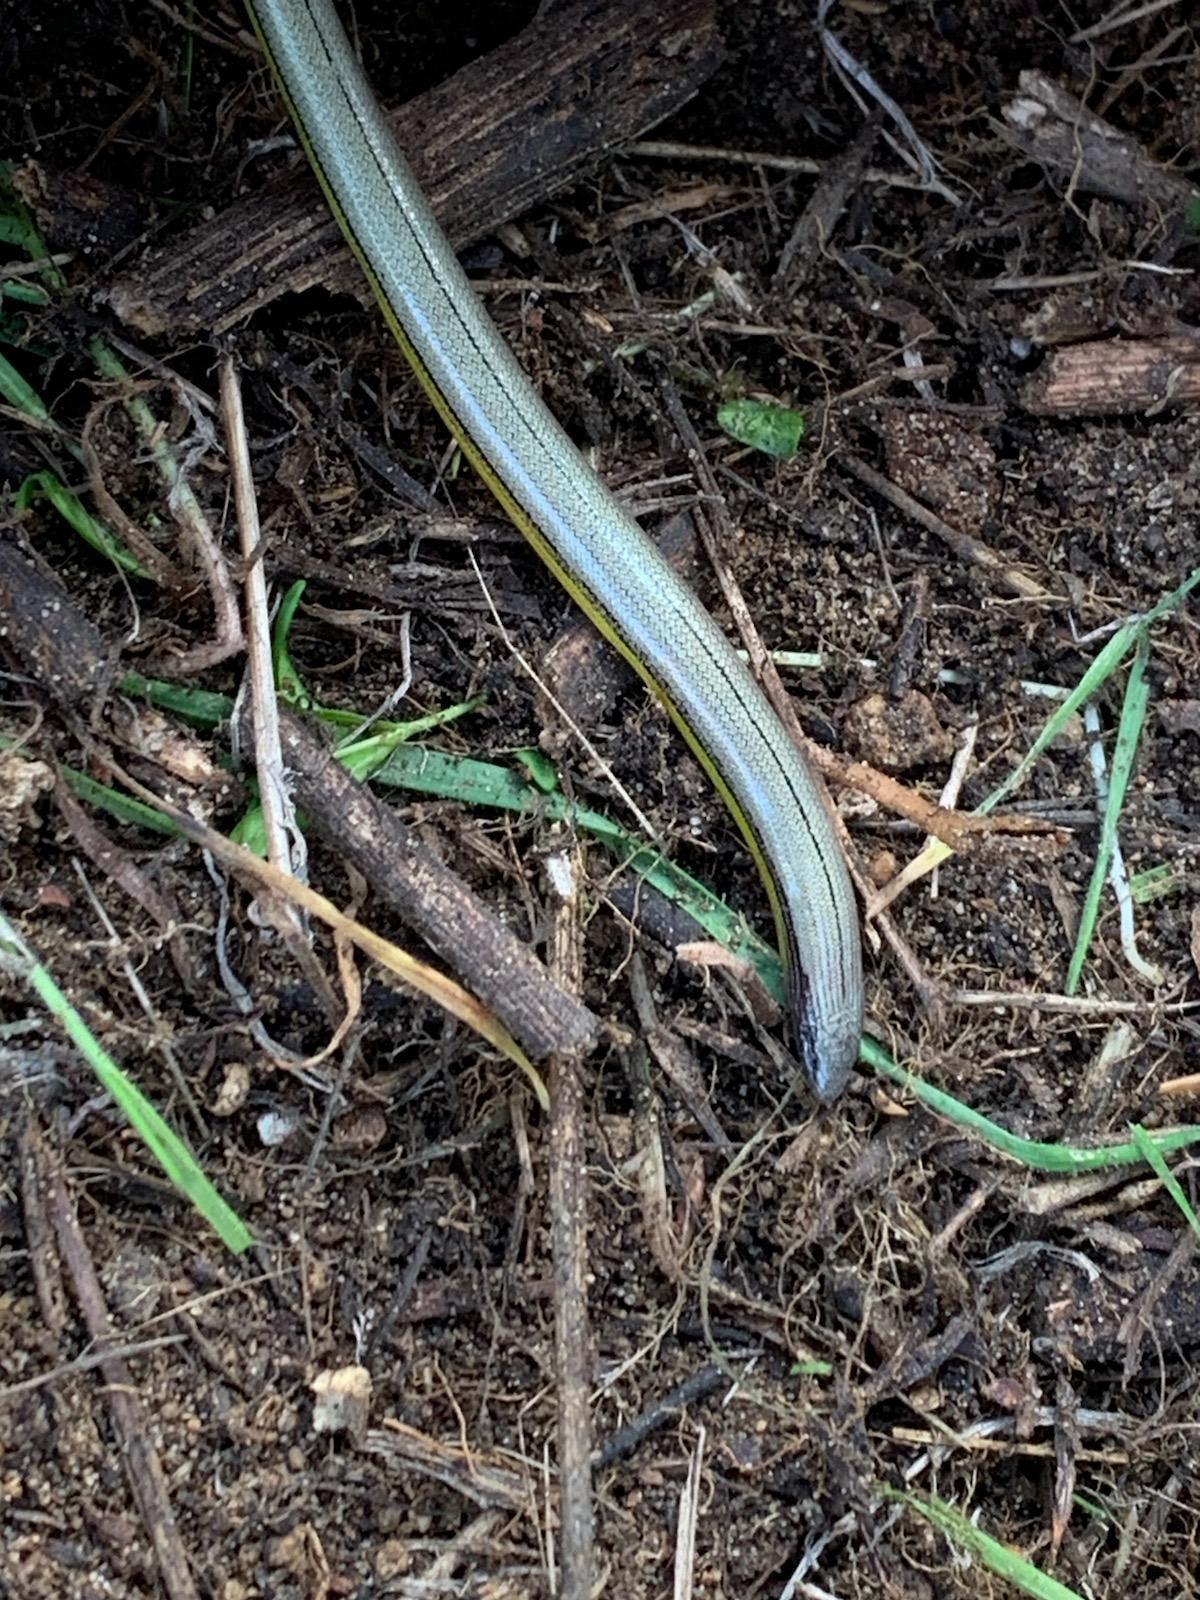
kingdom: Animalia
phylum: Chordata
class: Squamata
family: Anguidae
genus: Anniella
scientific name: Anniella stebbinsi
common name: Southern california legless lizard
